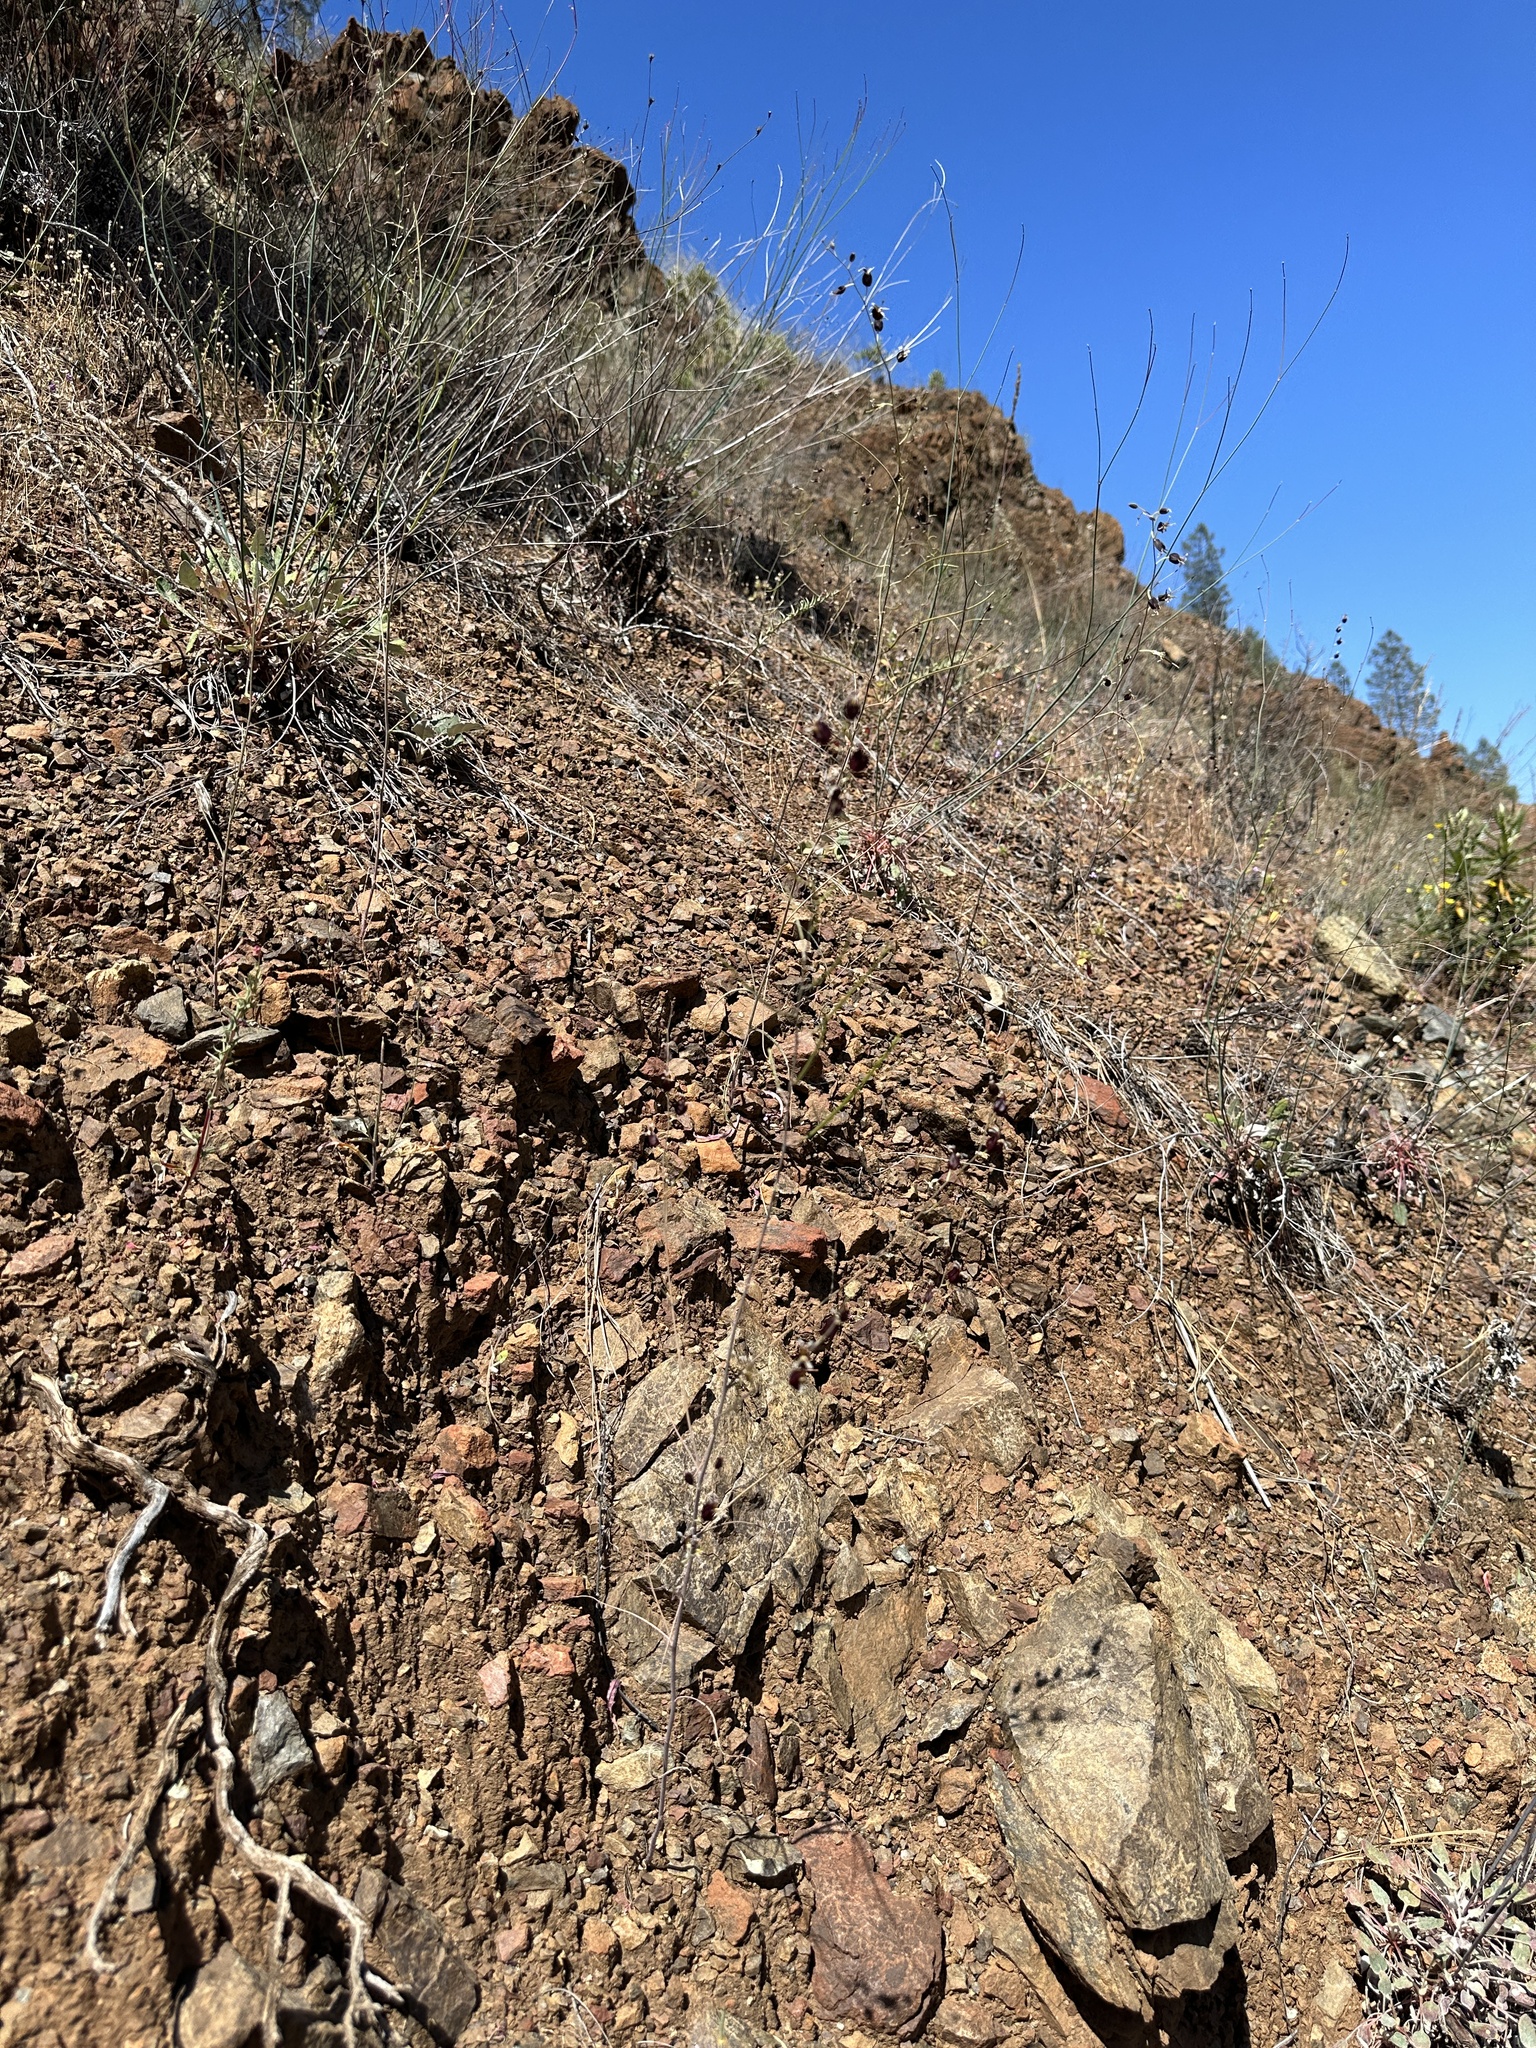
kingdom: Plantae
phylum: Tracheophyta
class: Magnoliopsida
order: Brassicales
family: Brassicaceae
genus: Streptanthus
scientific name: Streptanthus glandulosus
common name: Jewel-flower
